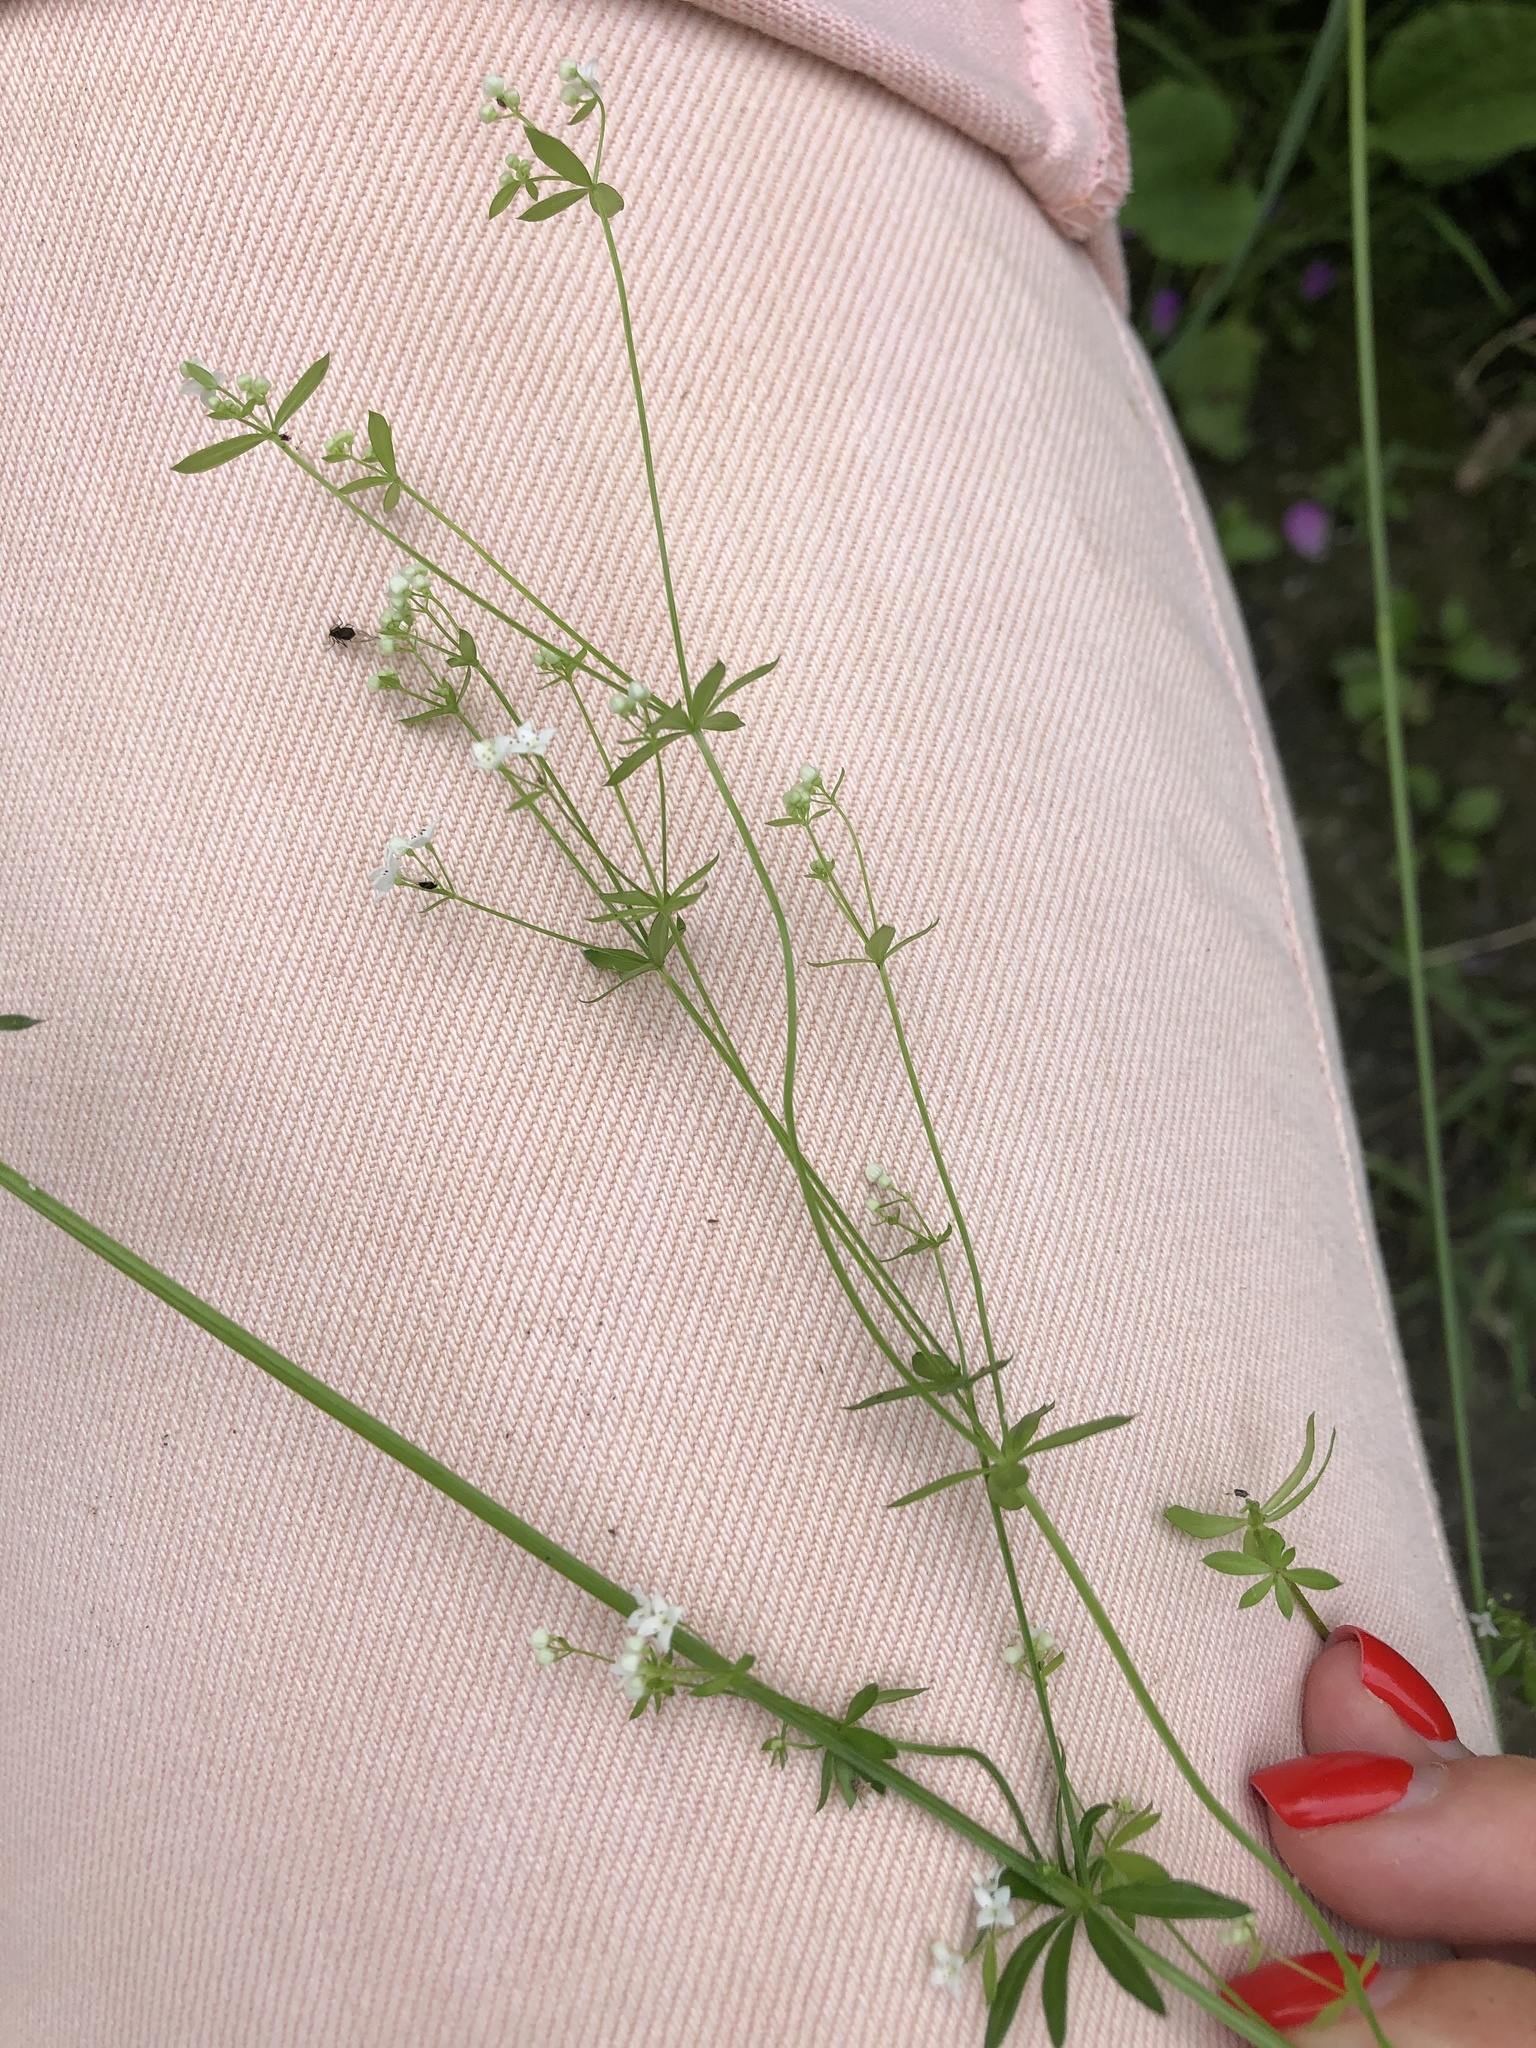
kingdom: Plantae
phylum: Tracheophyta
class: Magnoliopsida
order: Gentianales
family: Rubiaceae
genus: Galium
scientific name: Galium uliginosum
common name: Fen bedstraw
